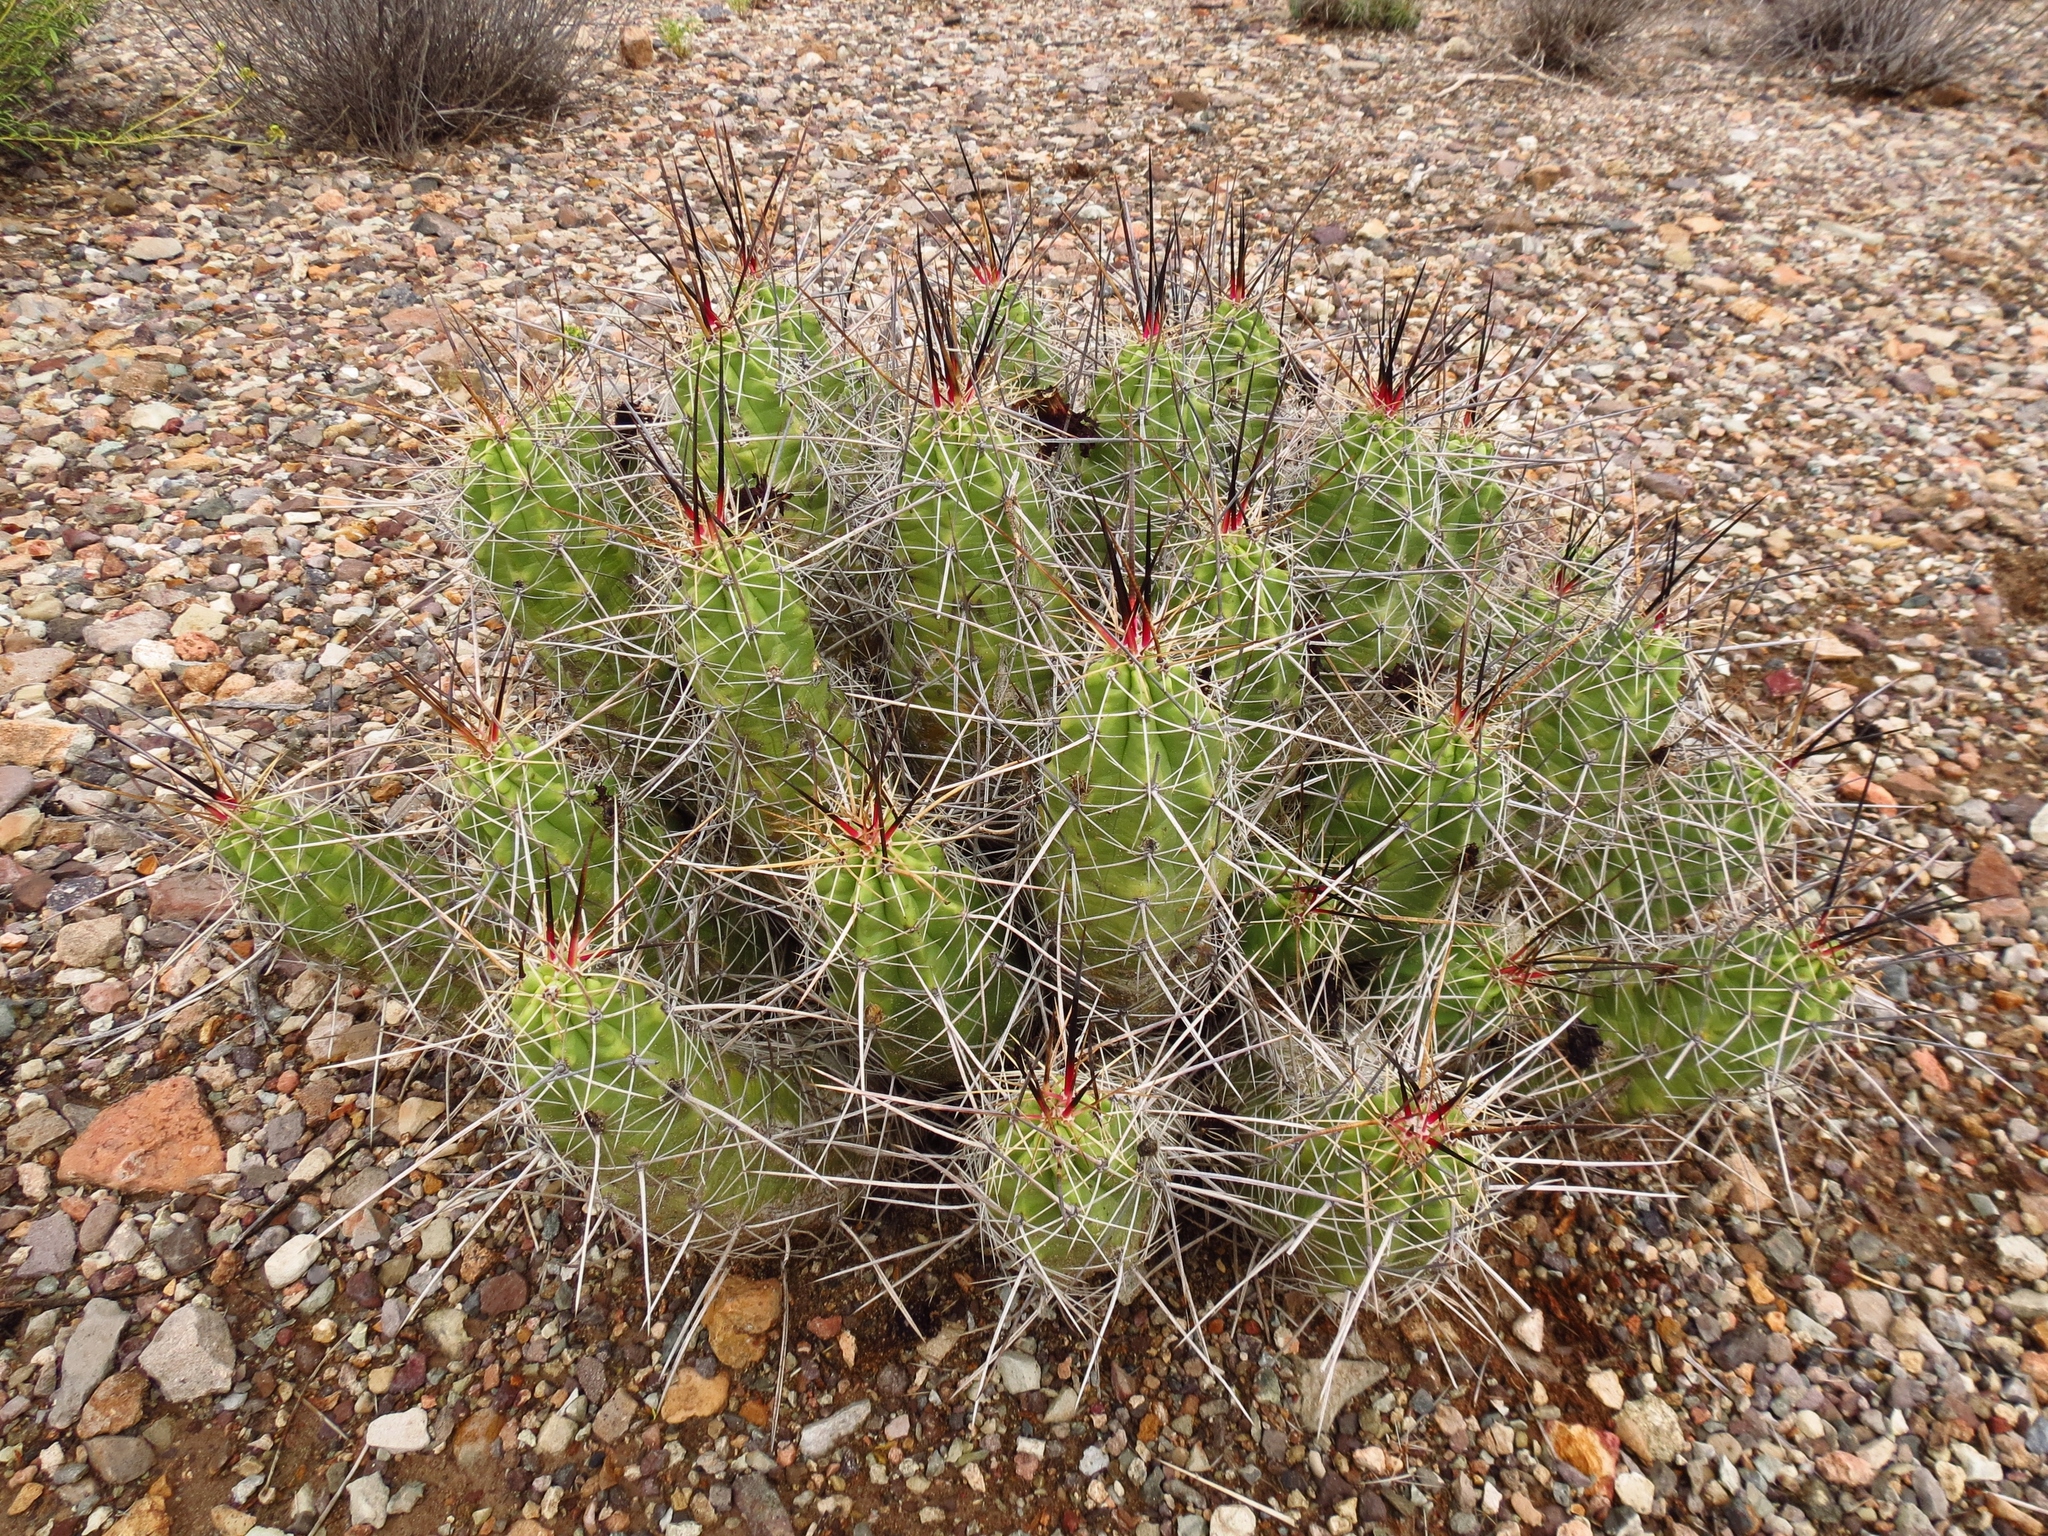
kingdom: Plantae
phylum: Tracheophyta
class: Magnoliopsida
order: Caryophyllales
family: Cactaceae
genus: Echinocereus
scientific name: Echinocereus enneacanthus
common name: Pitaya
